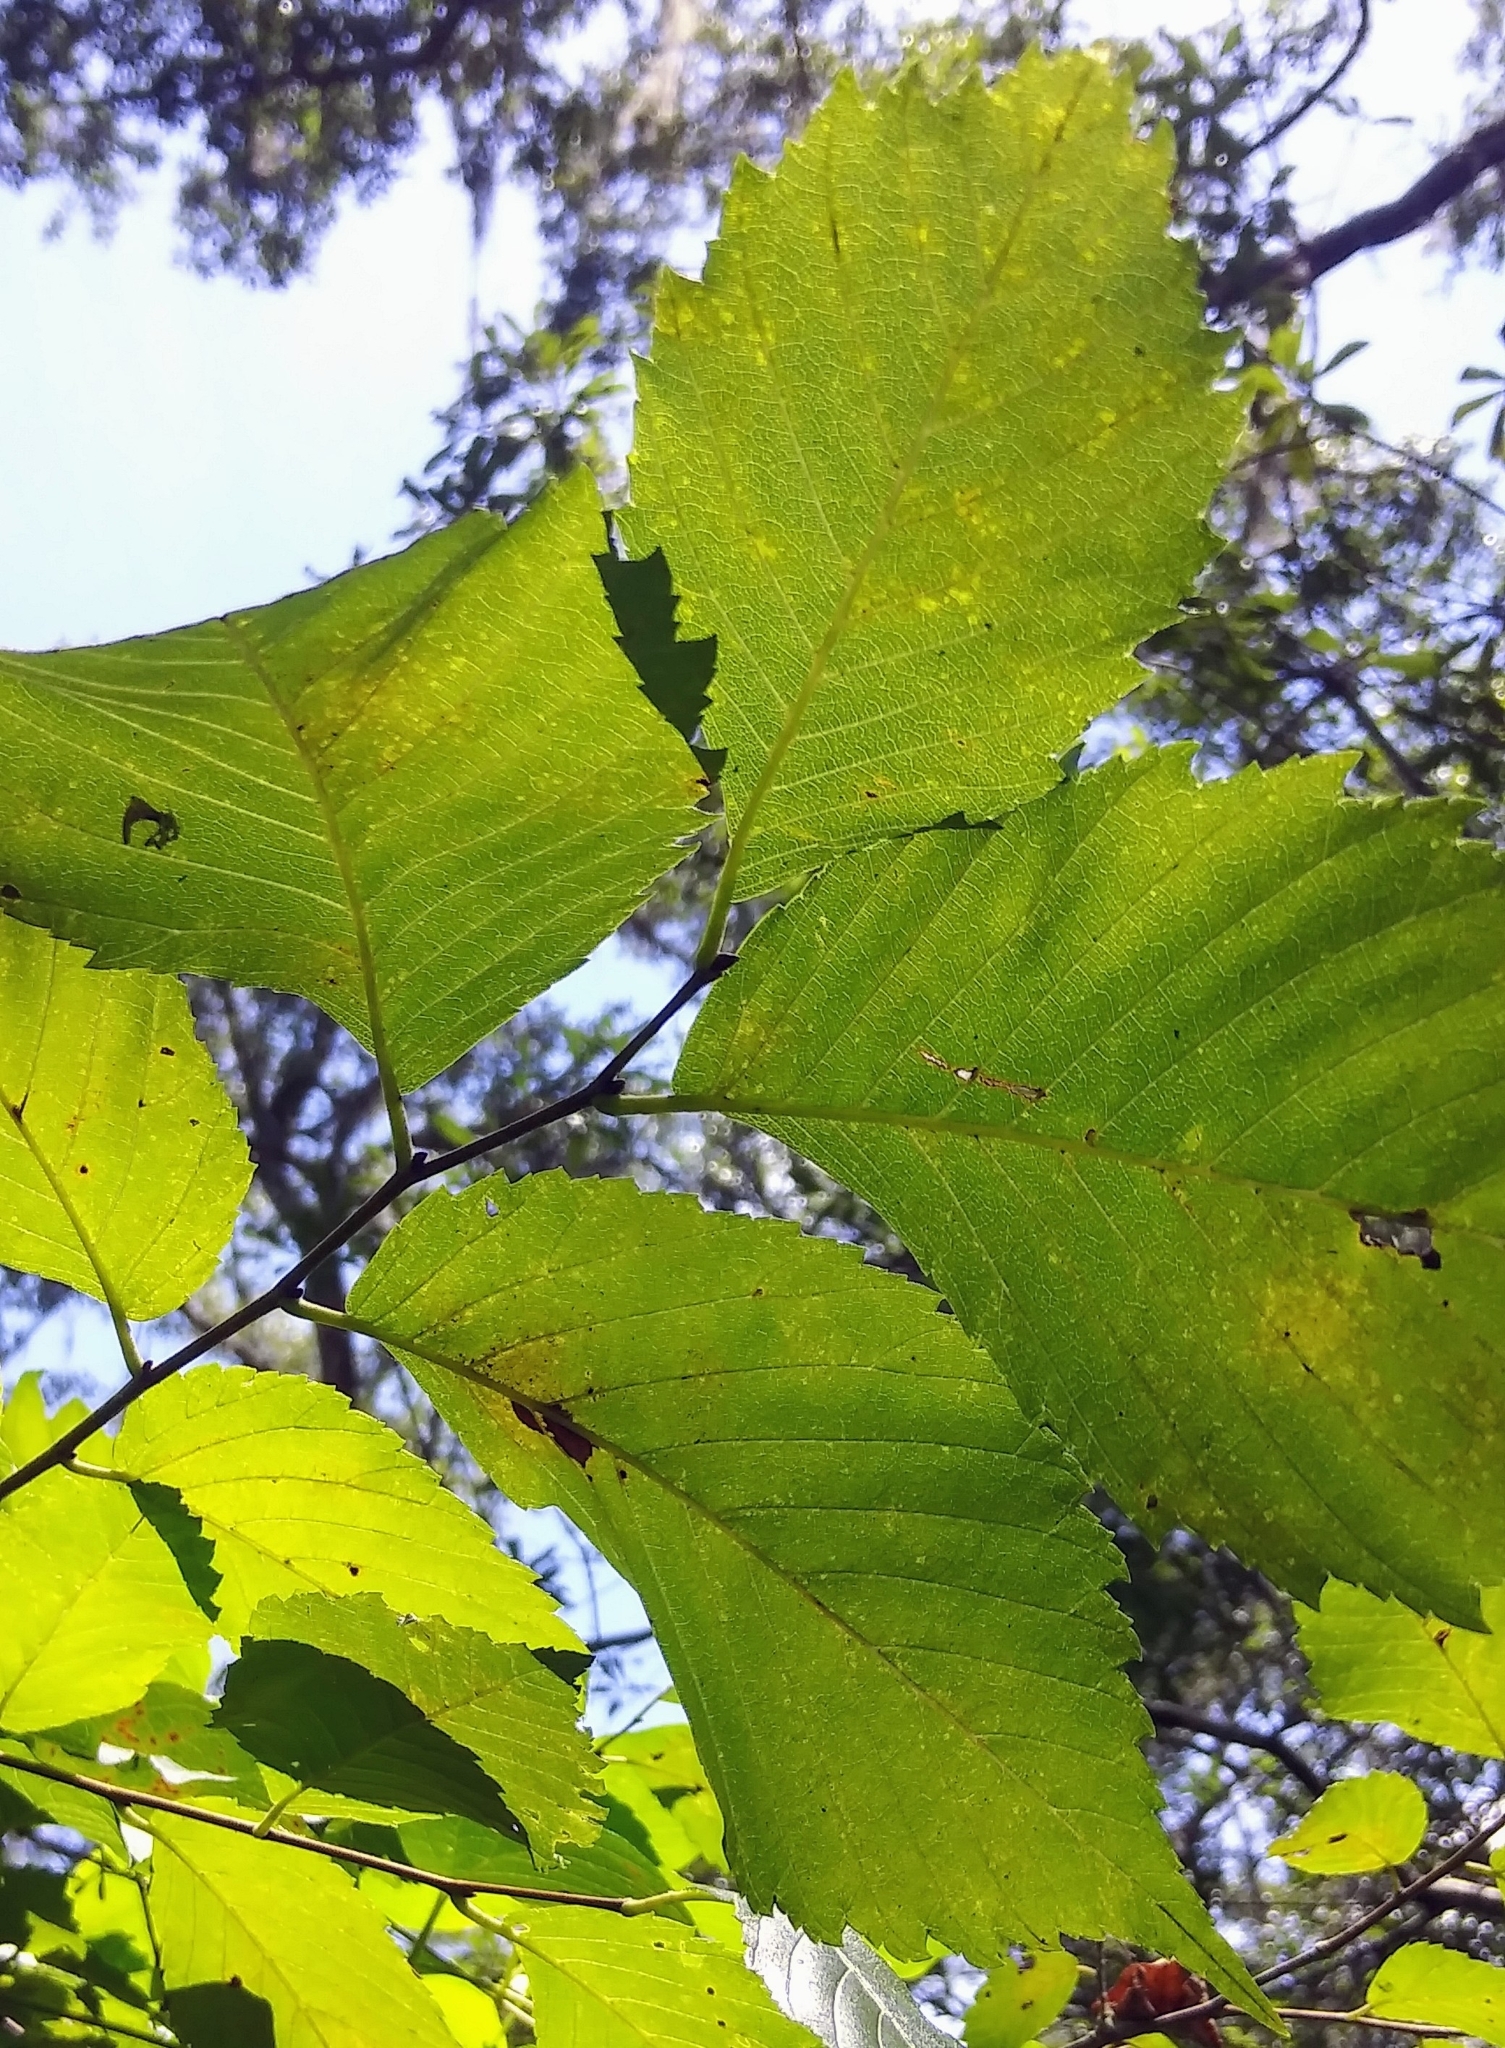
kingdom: Plantae
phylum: Tracheophyta
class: Magnoliopsida
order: Rosales
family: Ulmaceae
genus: Ulmus
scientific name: Ulmus americana
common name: American elm
